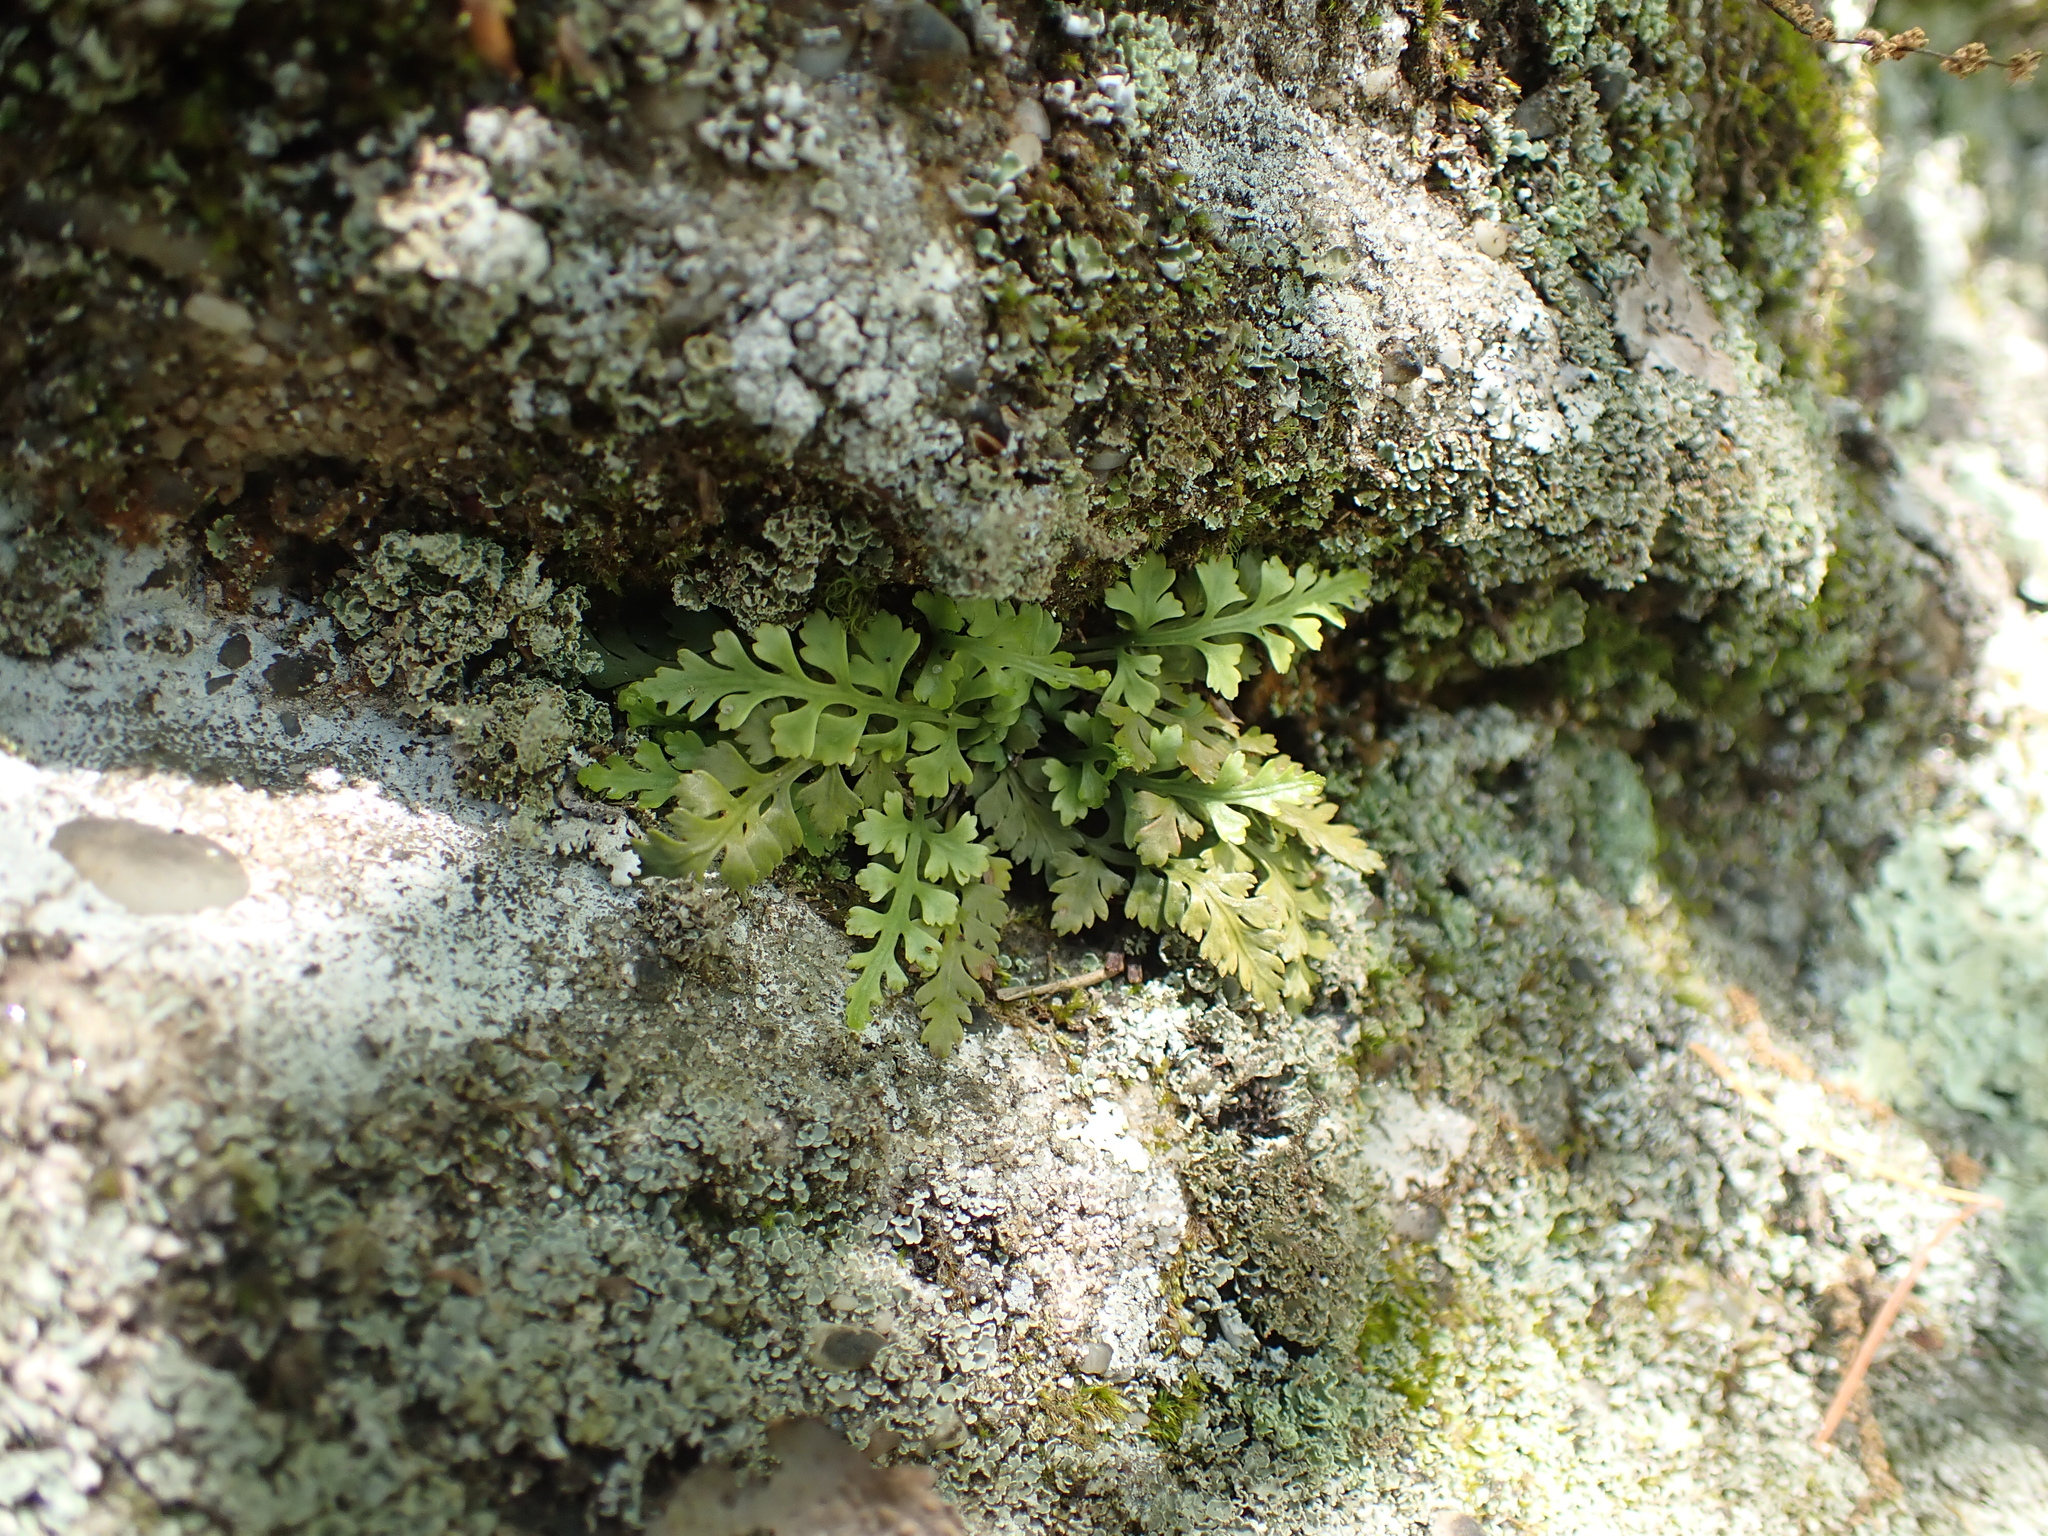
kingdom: Plantae
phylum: Tracheophyta
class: Polypodiopsida
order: Polypodiales
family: Aspleniaceae
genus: Asplenium
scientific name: Asplenium montanum
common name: Mountain spleenwort
